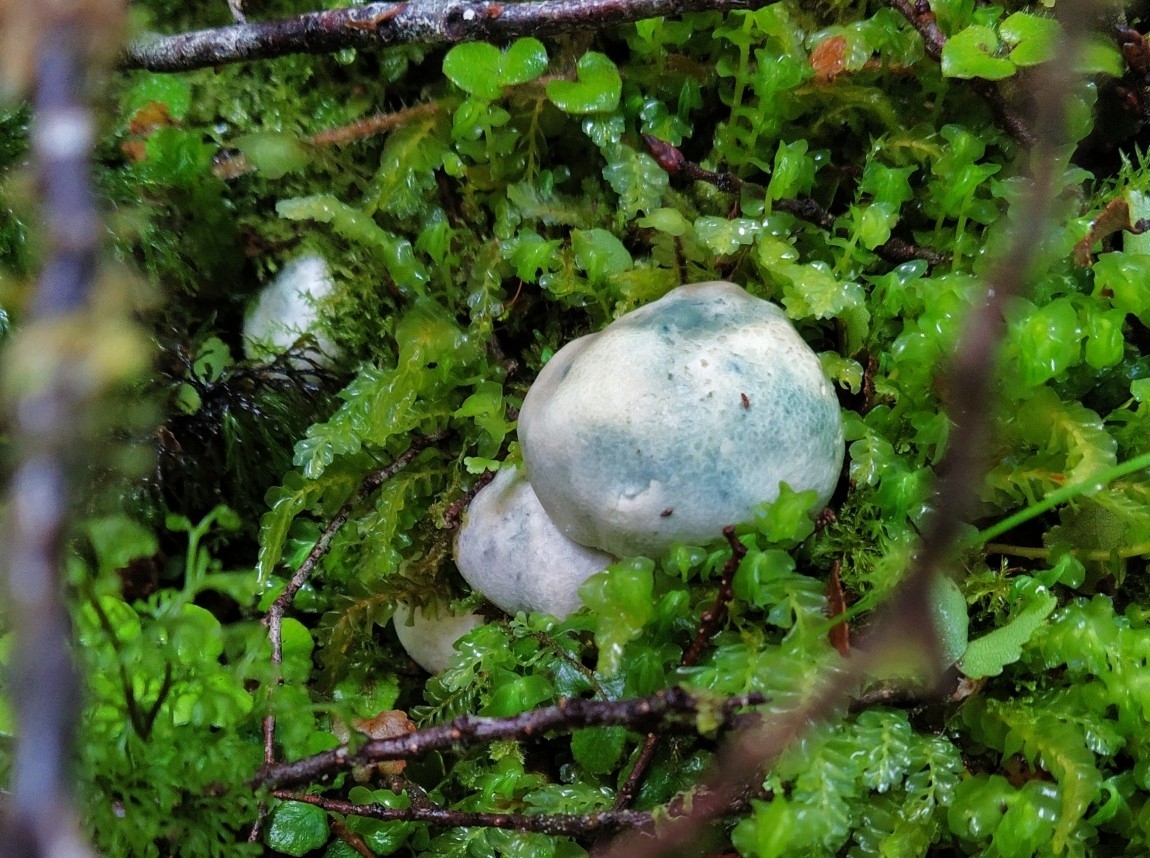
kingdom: Fungi
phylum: Basidiomycota
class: Agaricomycetes
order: Boletales
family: Boletaceae
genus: Leccinum
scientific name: Leccinum pachyderme
